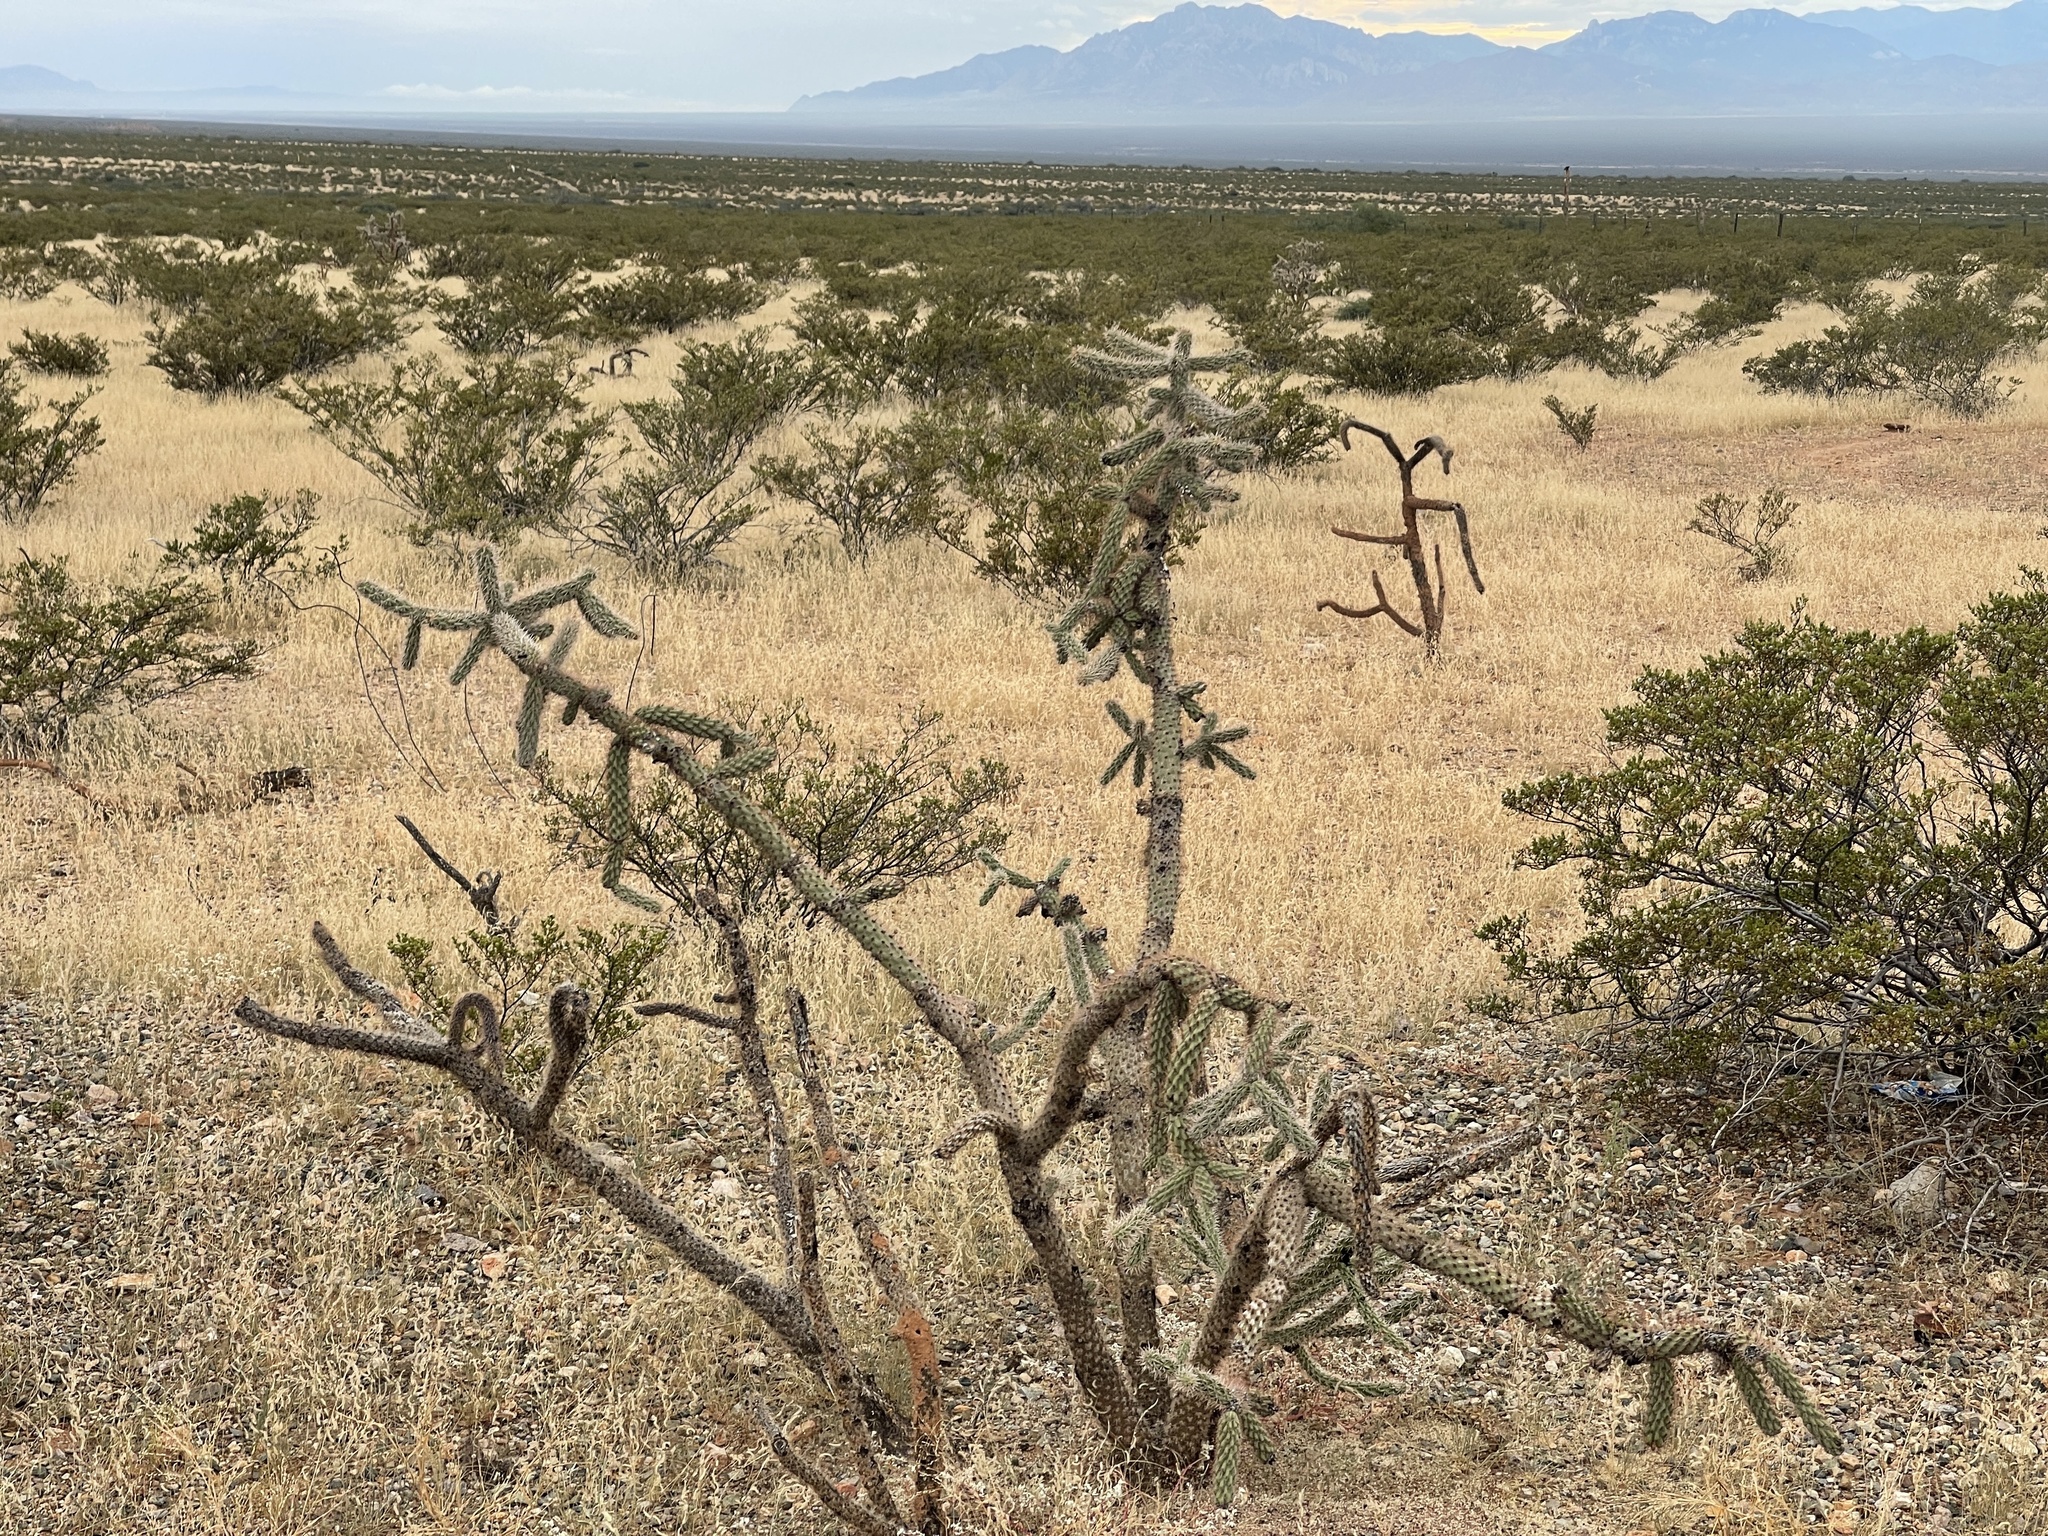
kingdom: Plantae
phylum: Tracheophyta
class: Magnoliopsida
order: Caryophyllales
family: Cactaceae
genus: Cylindropuntia
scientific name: Cylindropuntia imbricata
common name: Candelabrum cactus
